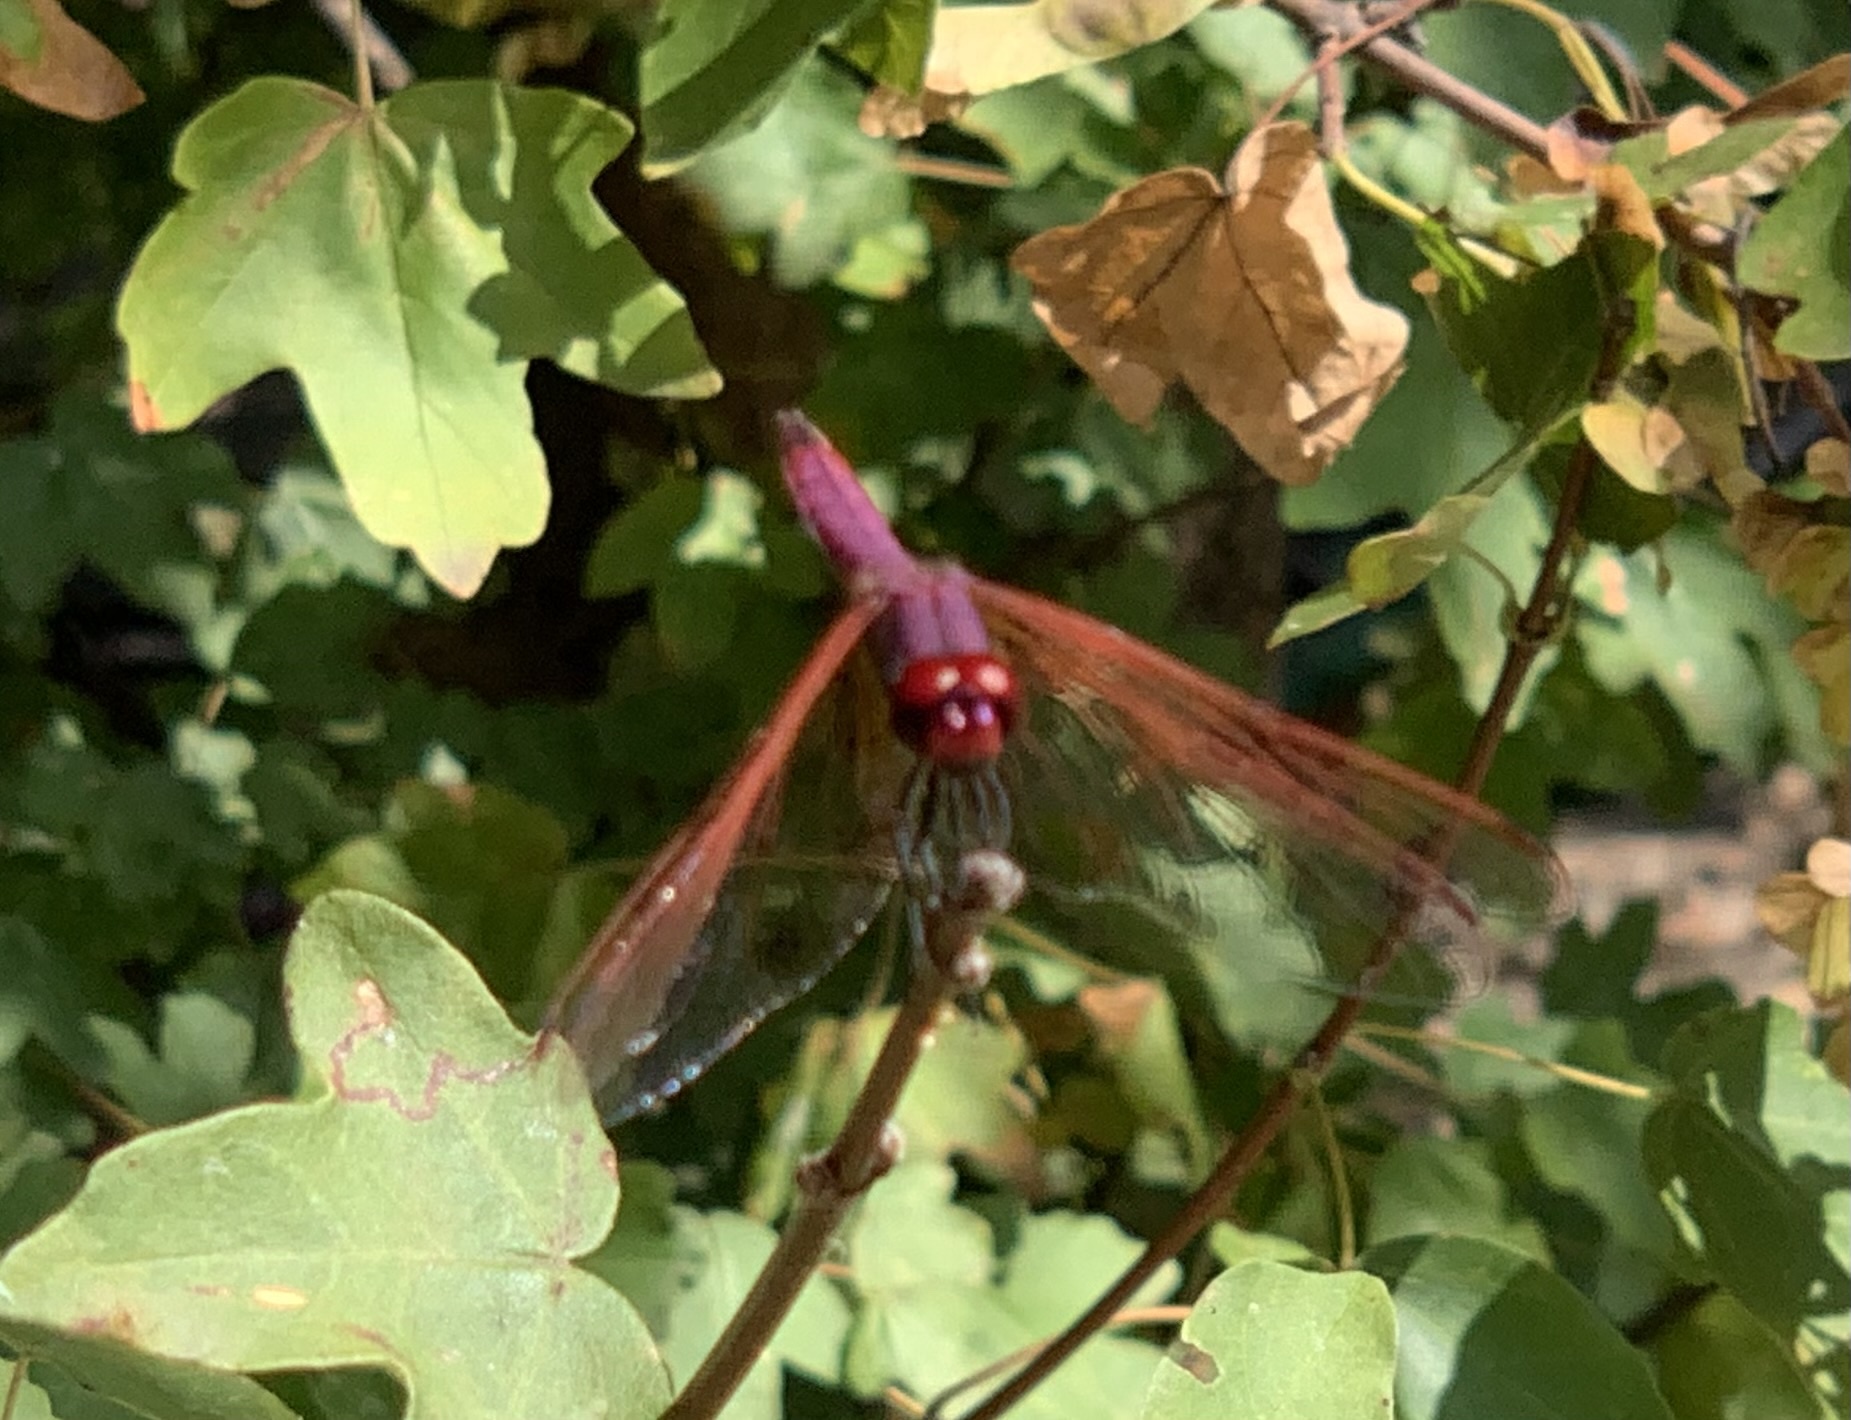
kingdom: Animalia
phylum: Arthropoda
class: Insecta
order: Odonata
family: Libellulidae
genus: Trithemis
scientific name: Trithemis annulata
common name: Violet dropwing
